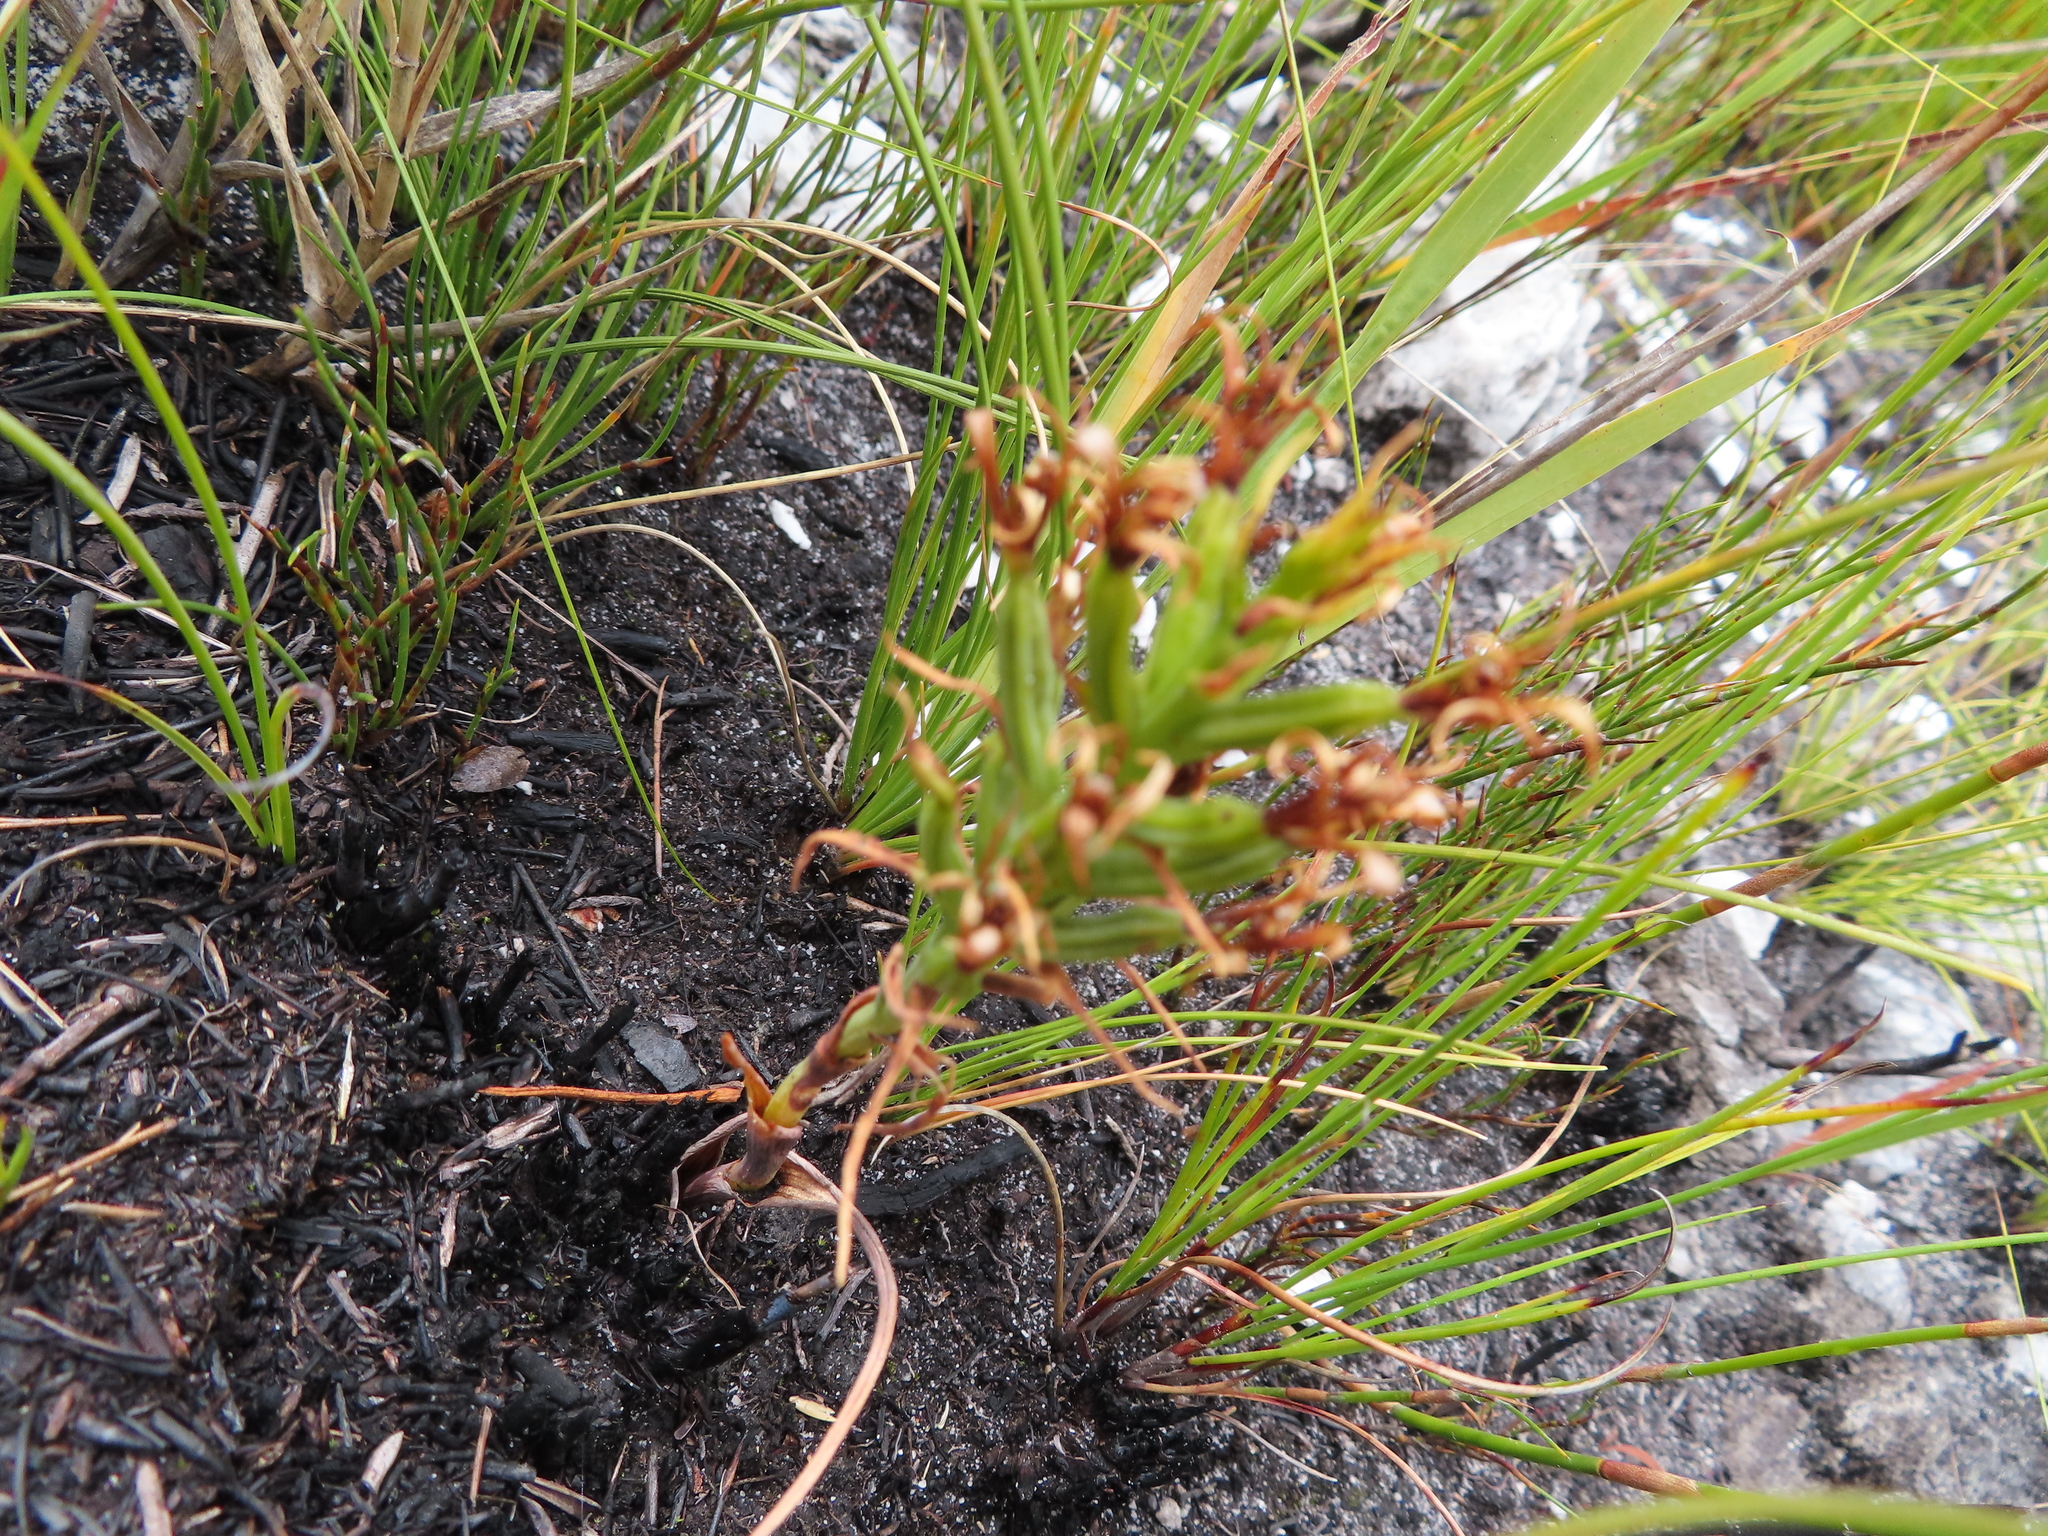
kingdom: Plantae
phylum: Tracheophyta
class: Liliopsida
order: Asparagales
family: Orchidaceae
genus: Pachites
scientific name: Pachites bodkinii
